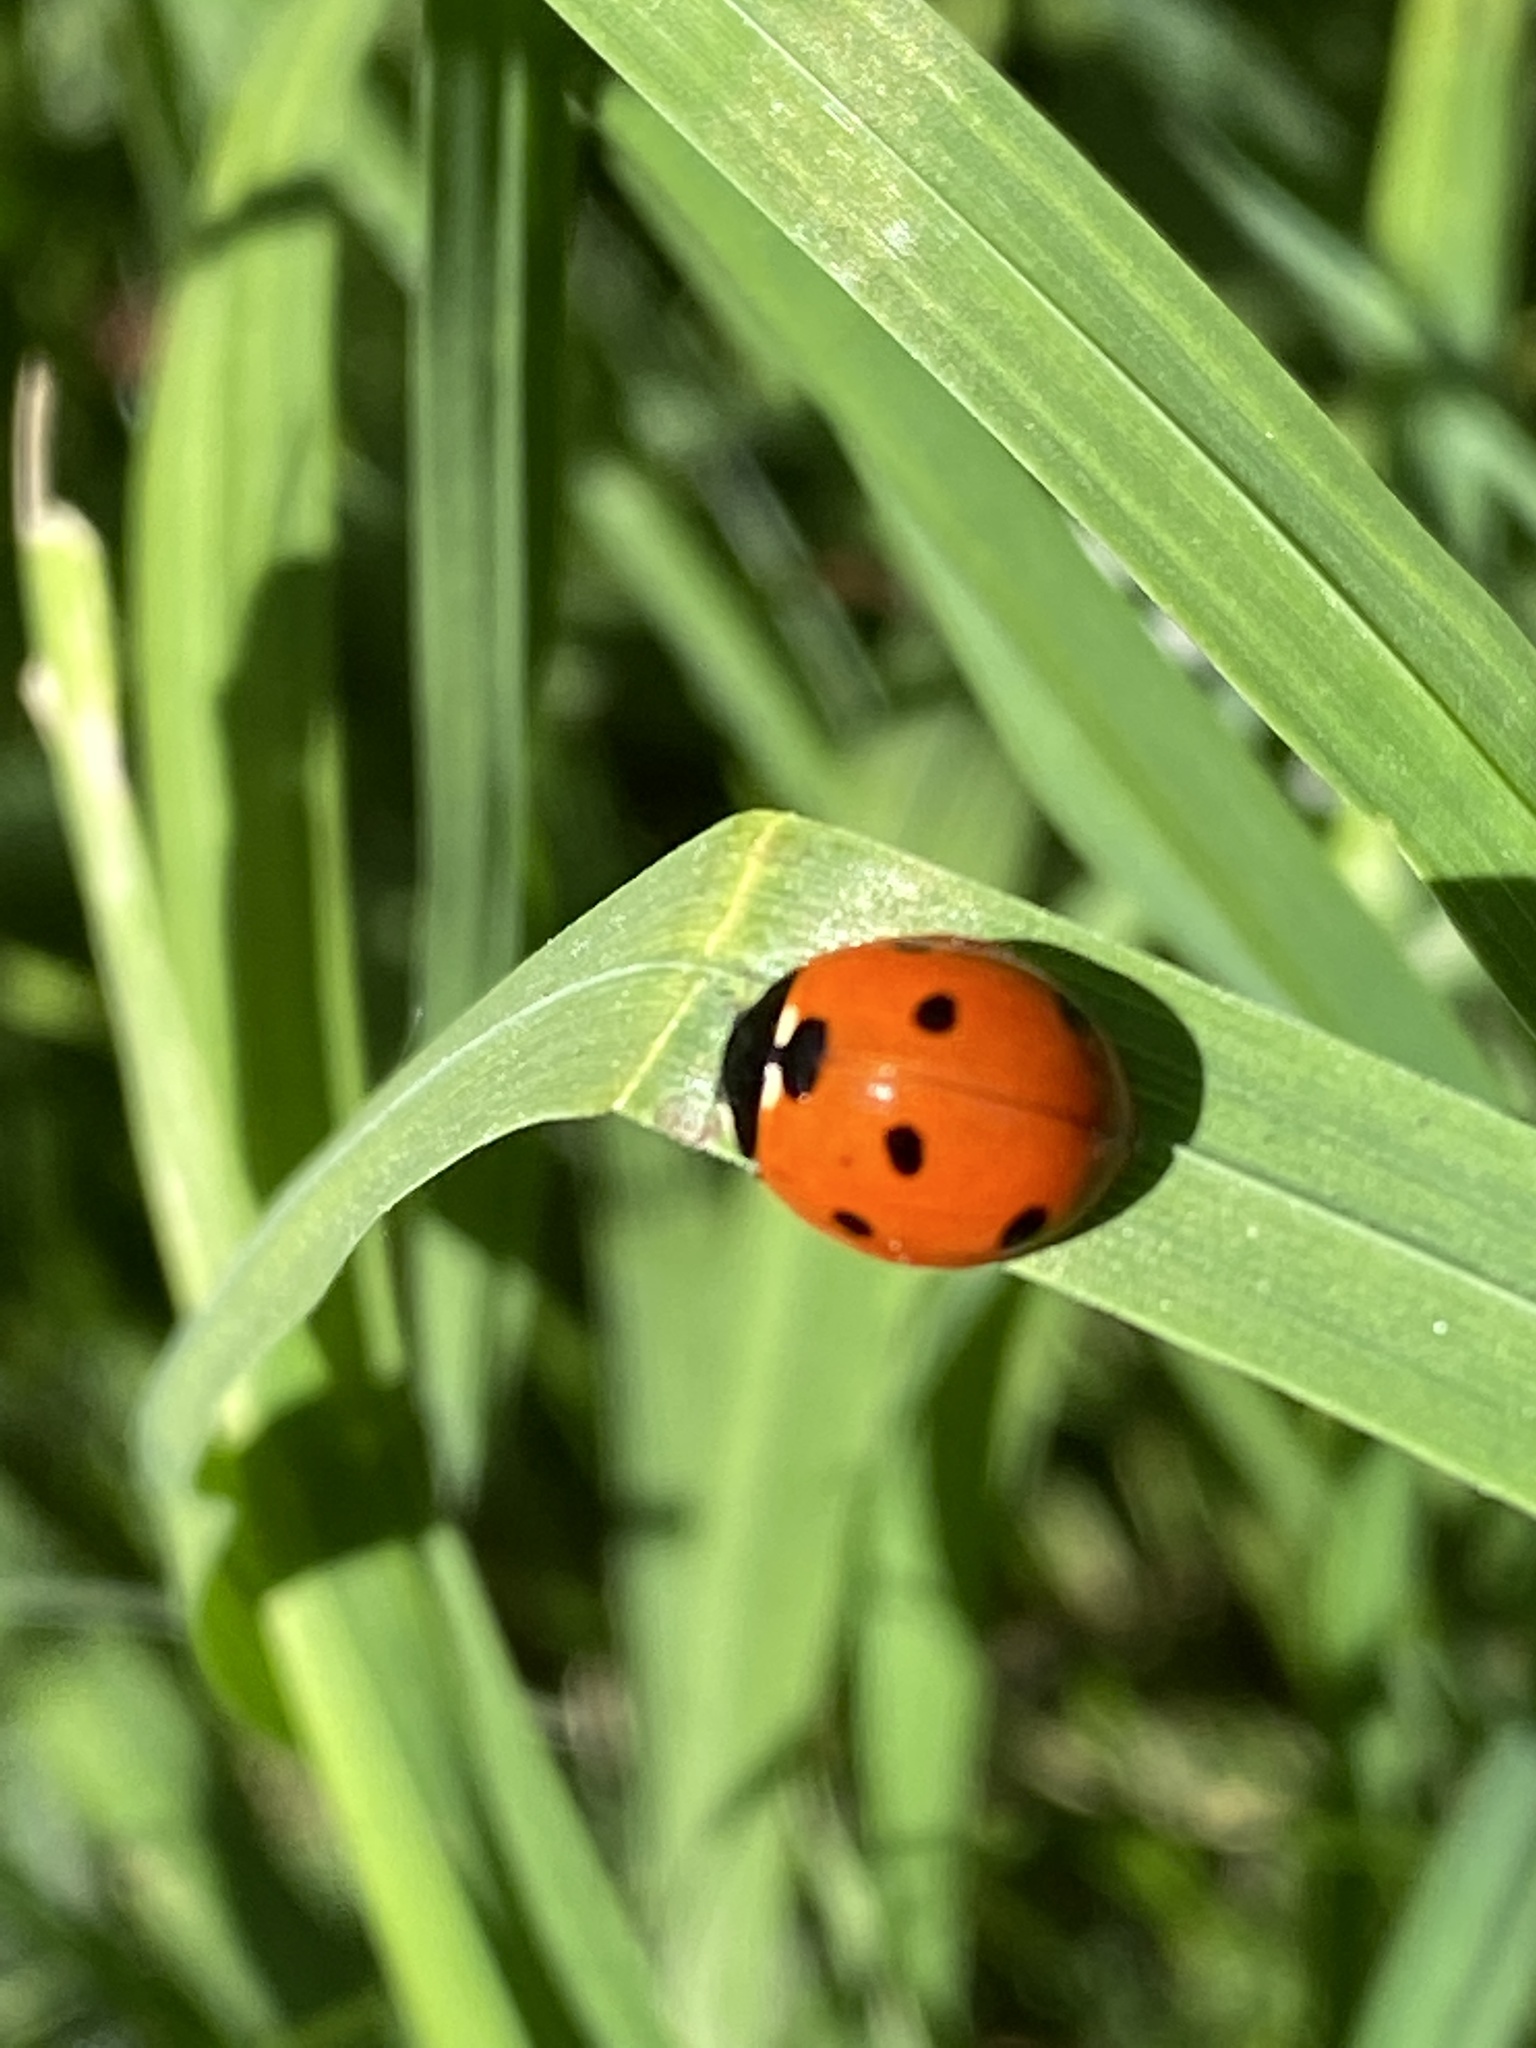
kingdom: Animalia
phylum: Arthropoda
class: Insecta
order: Coleoptera
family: Coccinellidae
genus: Coccinella
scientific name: Coccinella septempunctata
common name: Sevenspotted lady beetle
